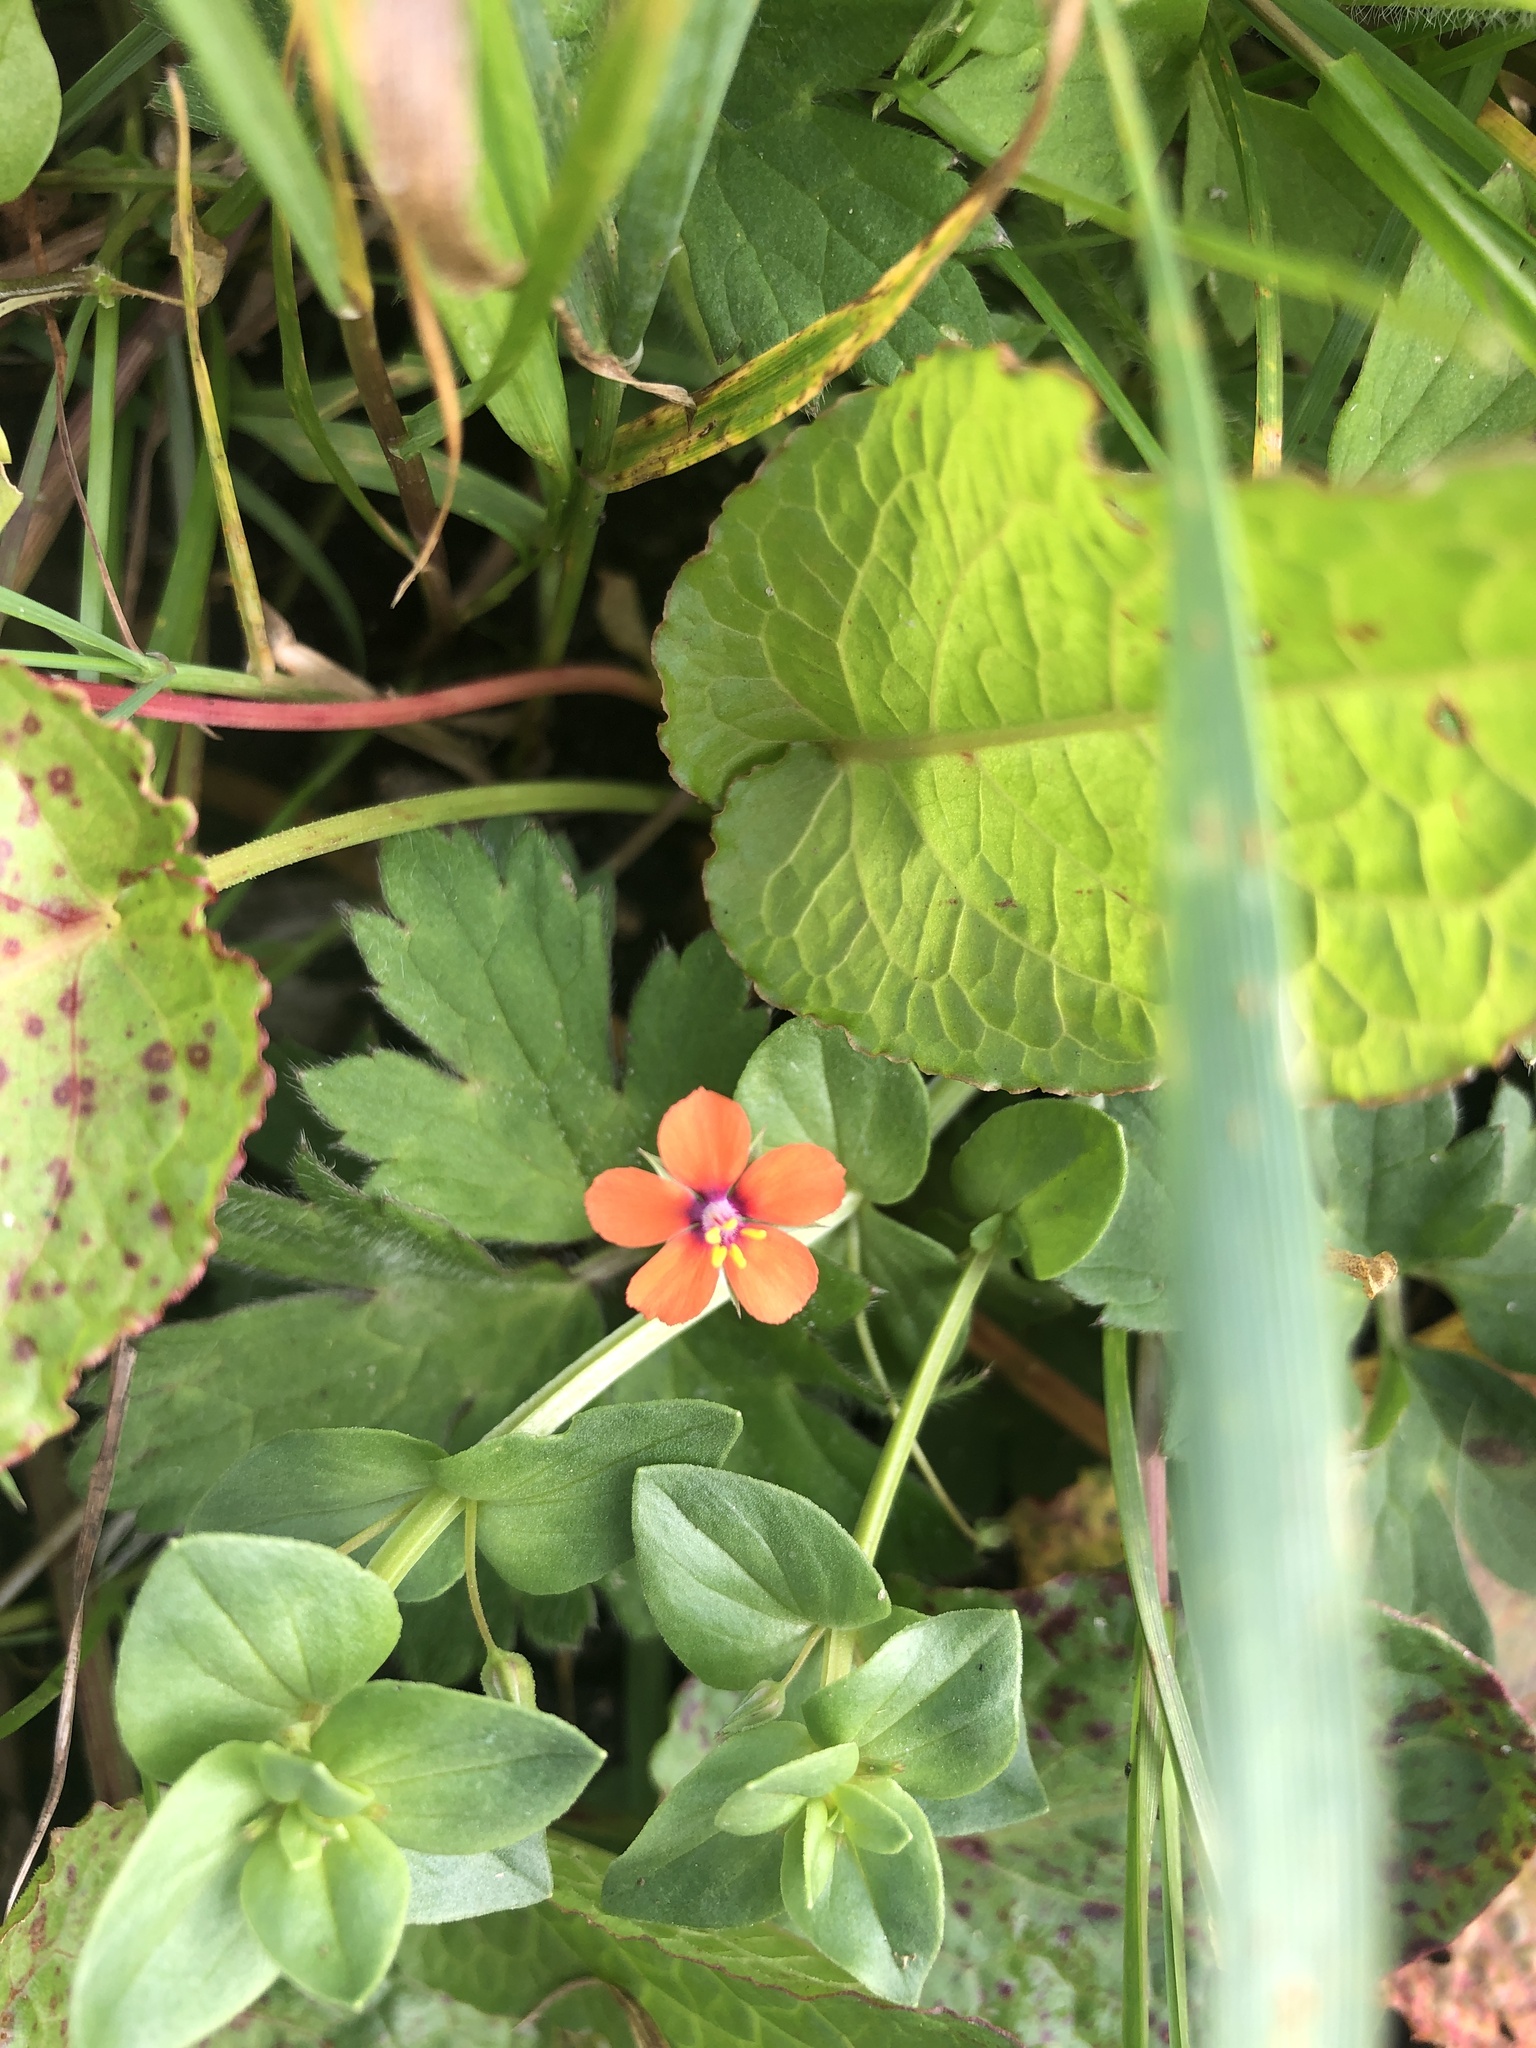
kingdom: Plantae
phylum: Tracheophyta
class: Magnoliopsida
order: Ericales
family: Primulaceae
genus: Lysimachia
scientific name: Lysimachia arvensis
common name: Scarlet pimpernel
